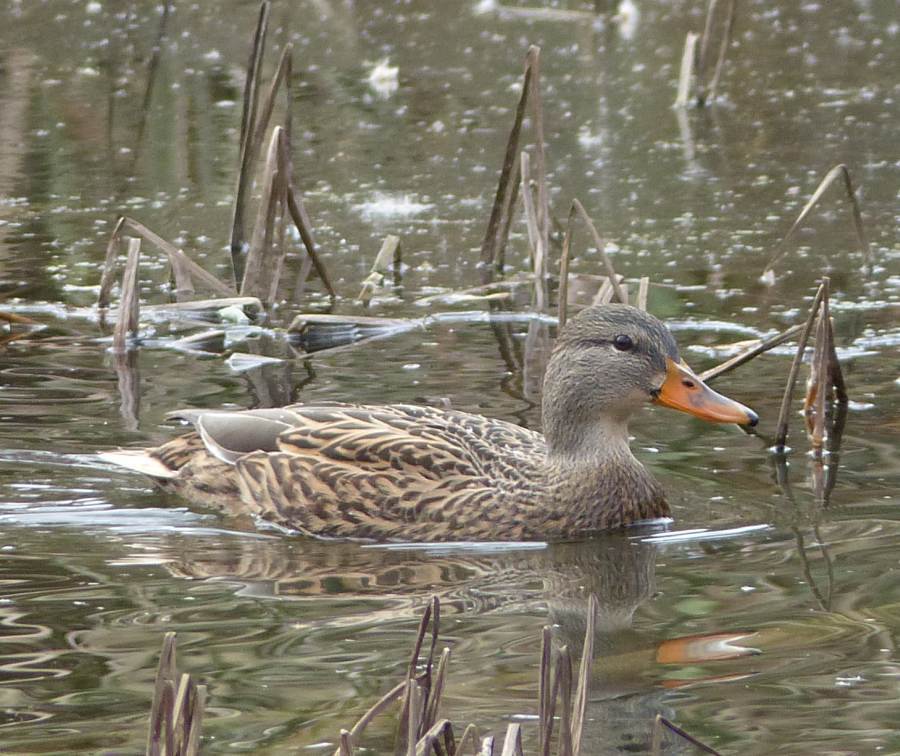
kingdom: Animalia
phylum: Chordata
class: Aves
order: Anseriformes
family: Anatidae
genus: Anas
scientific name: Anas platyrhynchos
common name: Mallard
